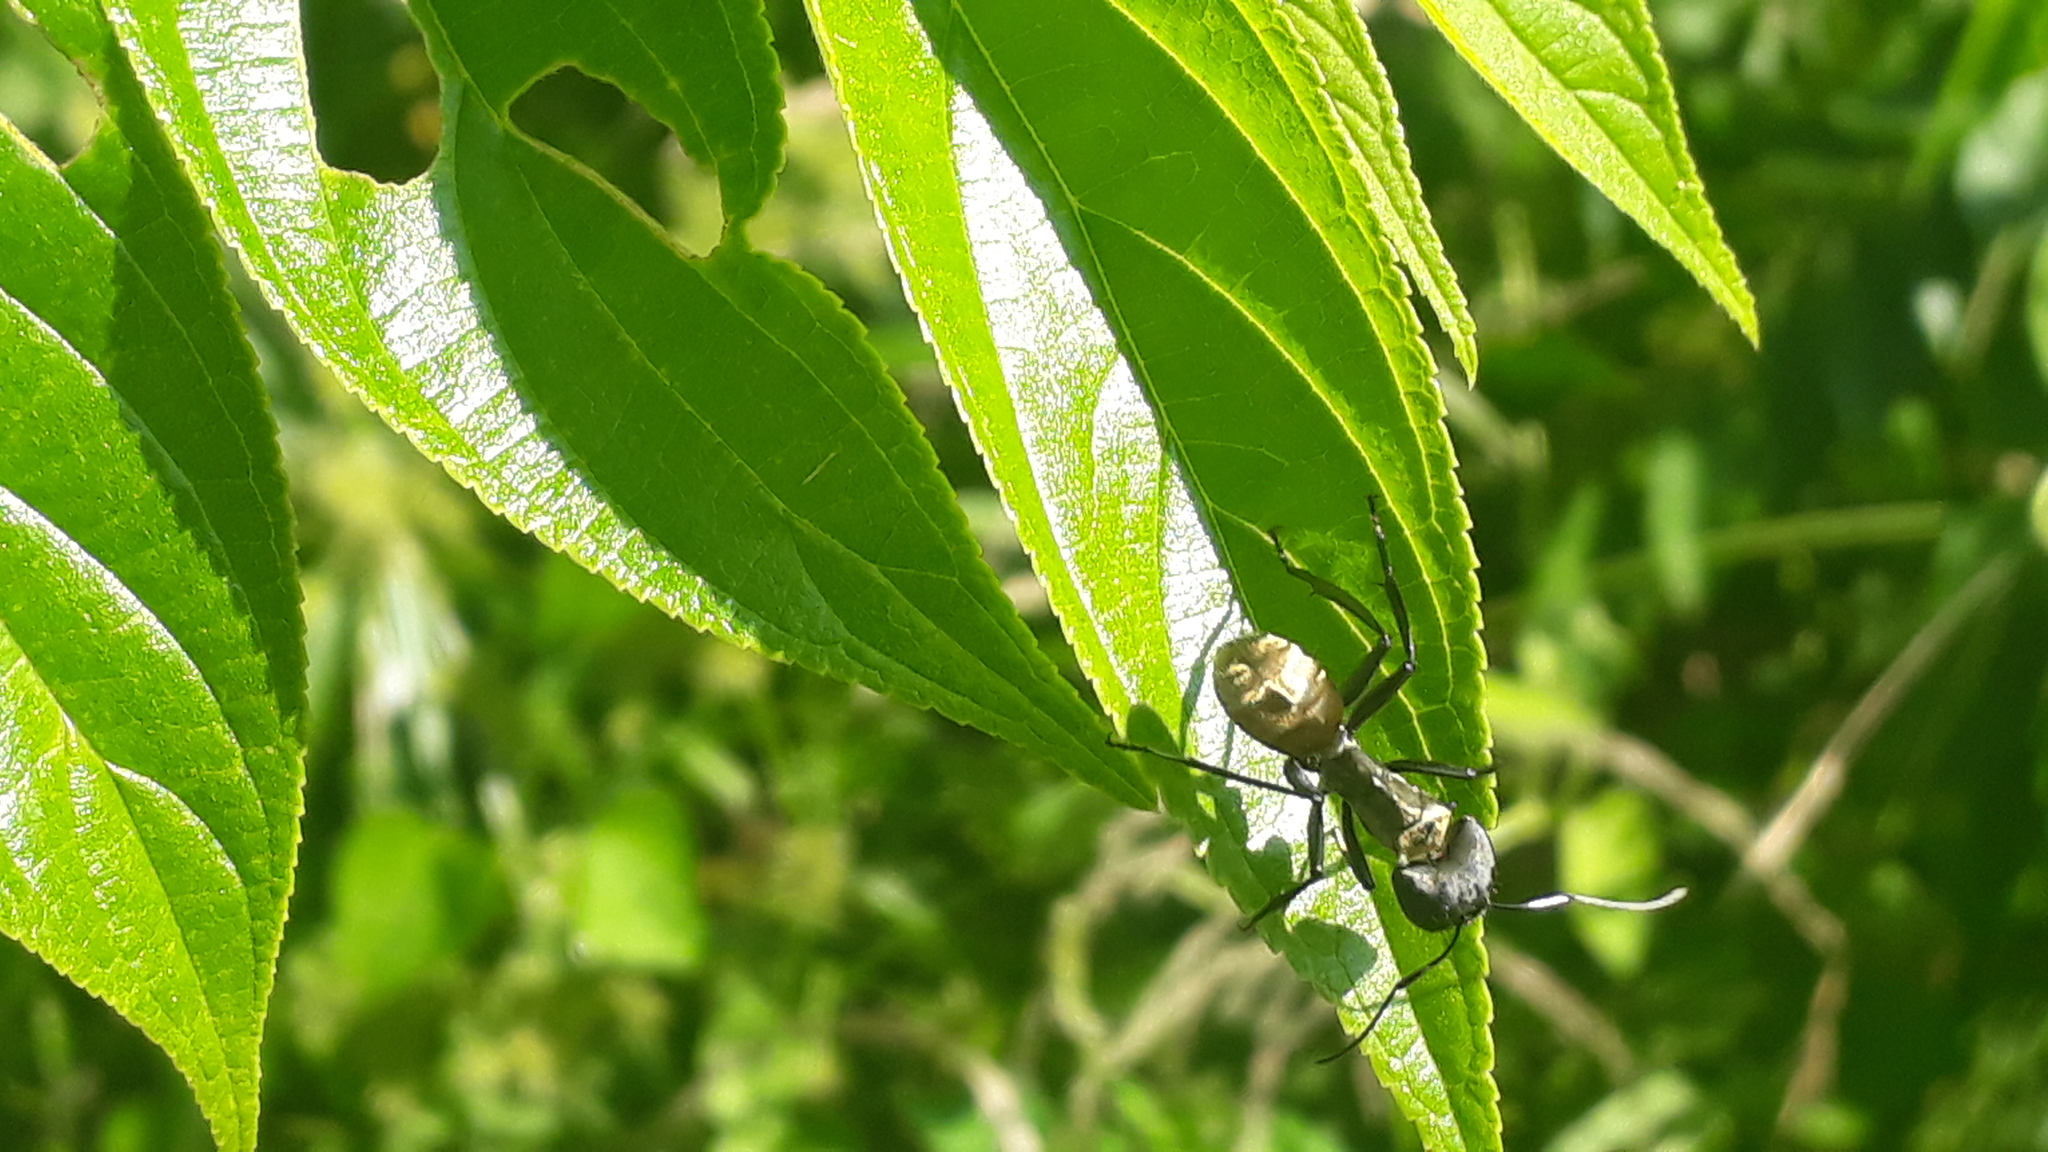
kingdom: Animalia
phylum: Arthropoda
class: Insecta
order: Hymenoptera
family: Formicidae
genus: Camponotus
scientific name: Camponotus sericeiventris
